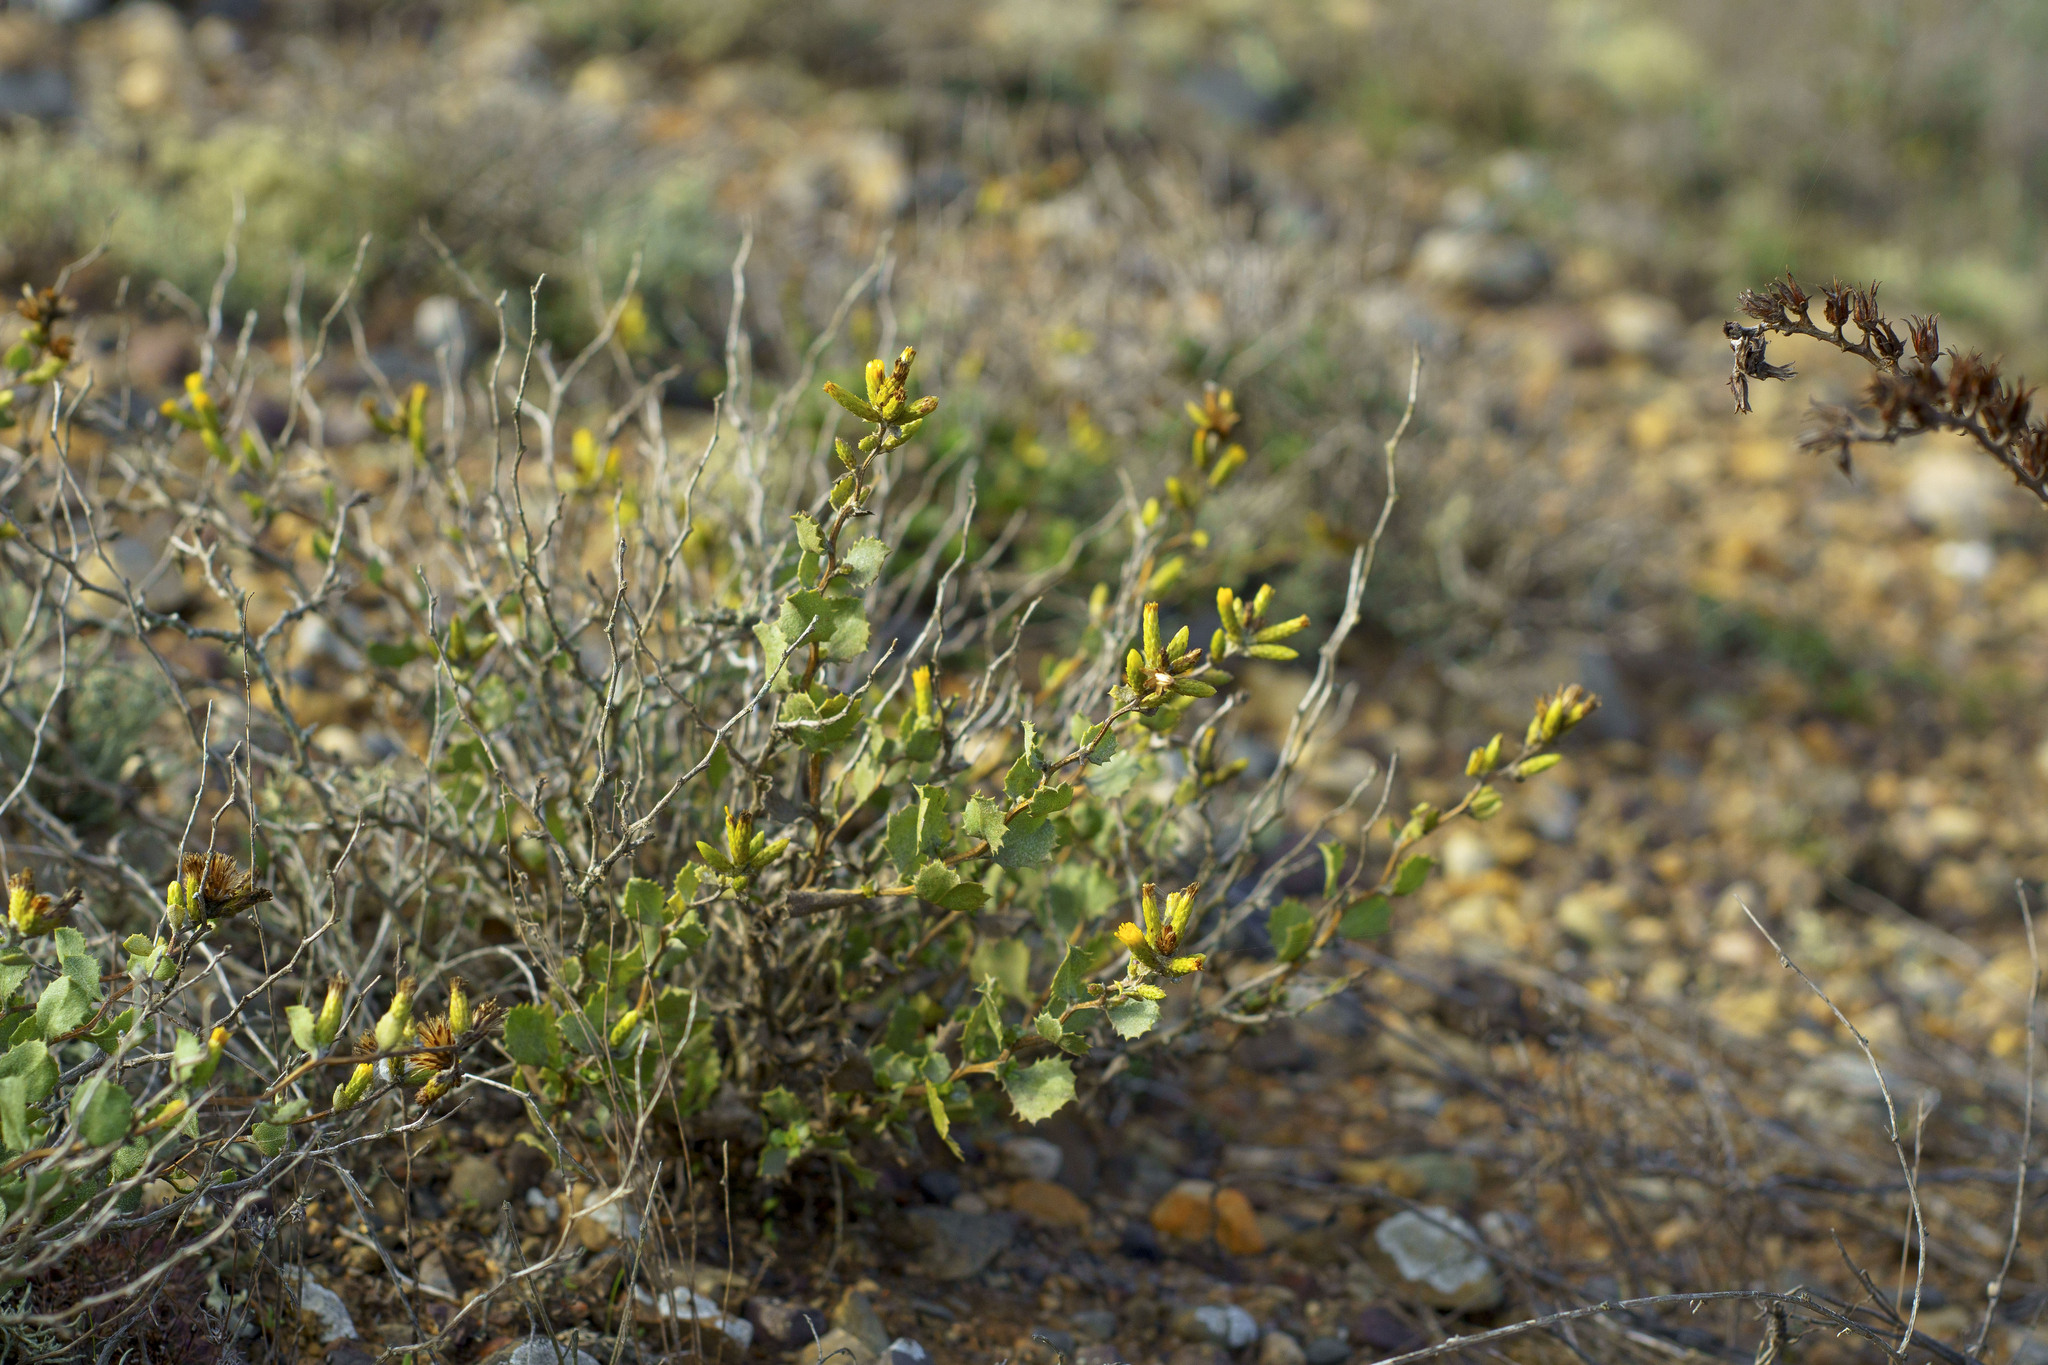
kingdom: Plantae
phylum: Tracheophyta
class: Magnoliopsida
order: Asterales
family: Asteraceae
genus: Hazardia
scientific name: Hazardia rosarica
